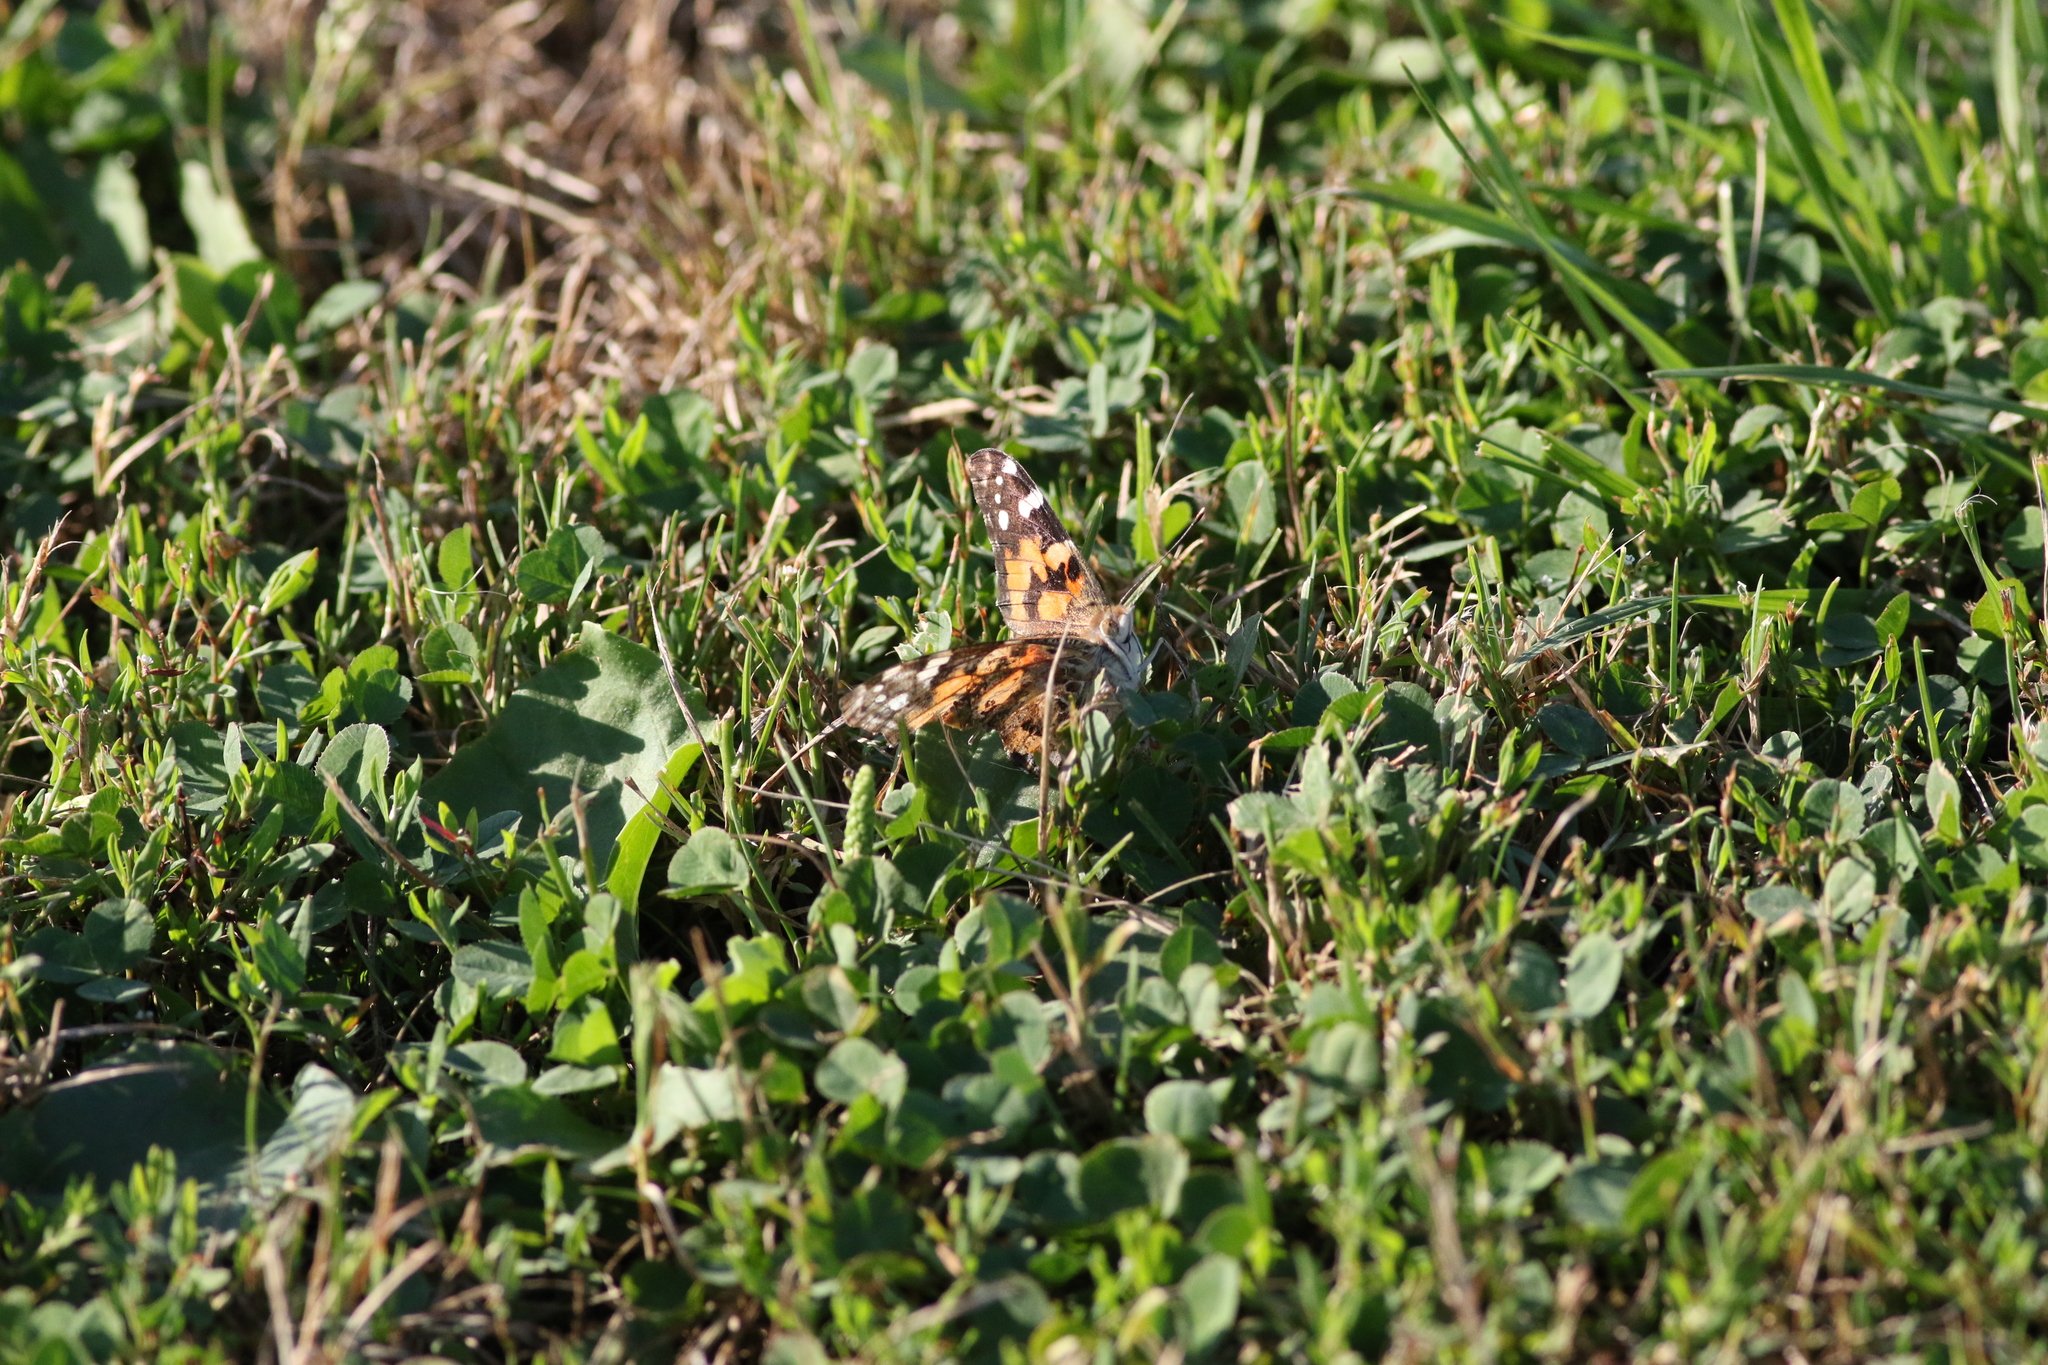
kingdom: Animalia
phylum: Arthropoda
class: Insecta
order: Lepidoptera
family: Nymphalidae
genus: Vanessa
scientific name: Vanessa cardui
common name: Painted lady
